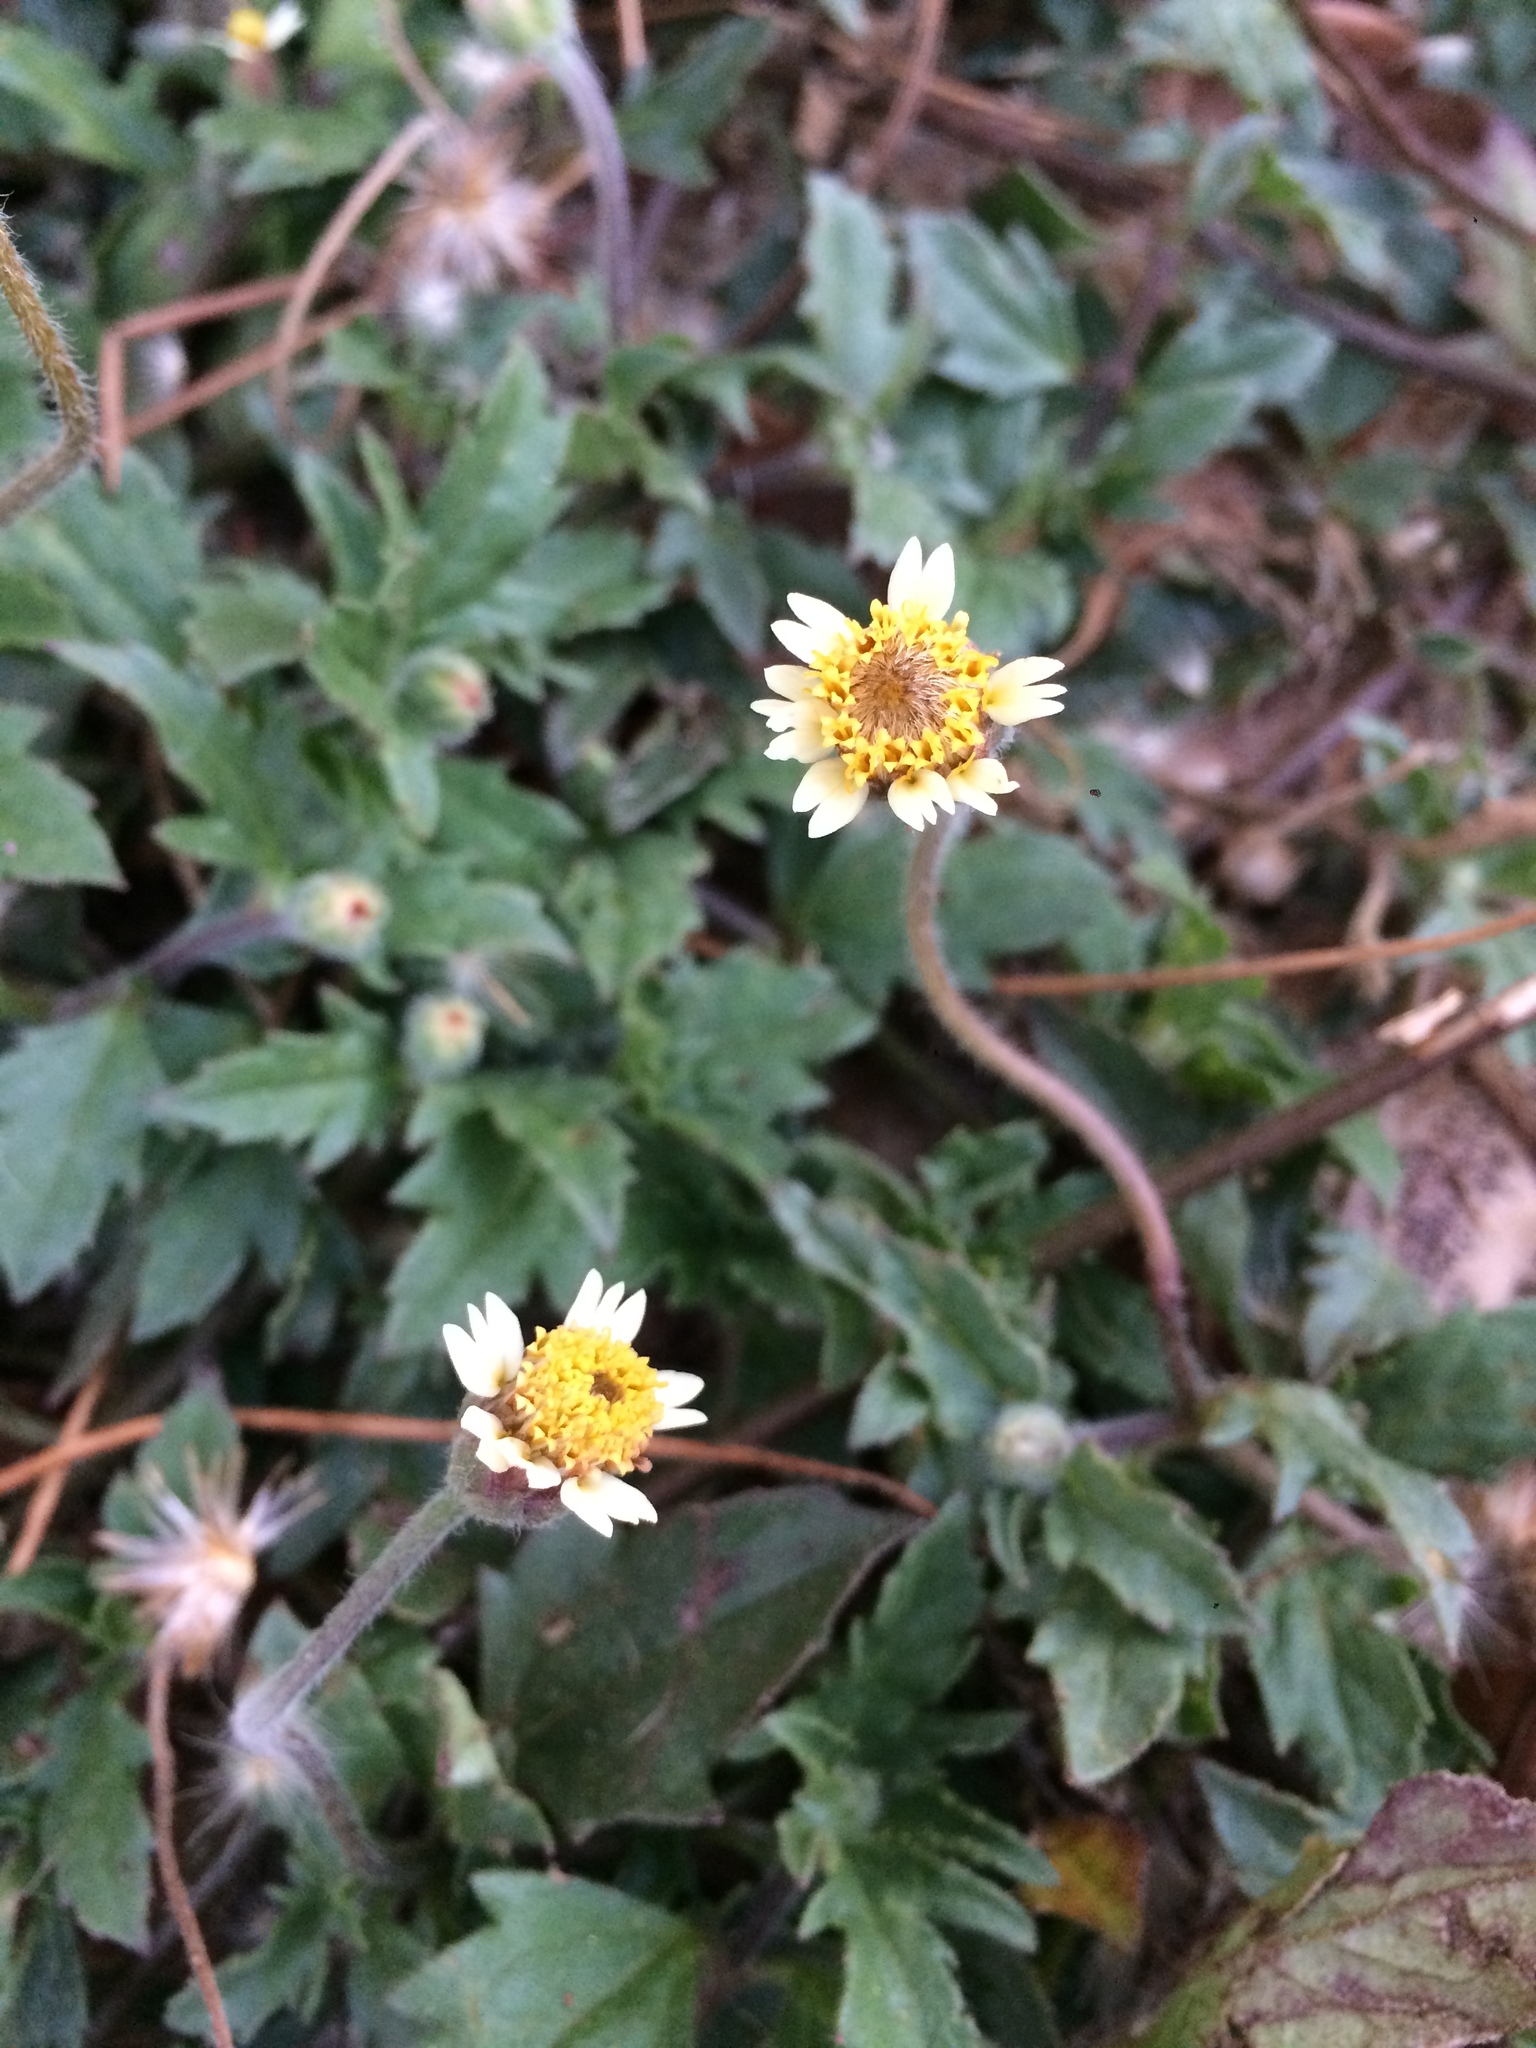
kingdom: Plantae
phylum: Tracheophyta
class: Magnoliopsida
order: Asterales
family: Asteraceae
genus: Tridax
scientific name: Tridax procumbens
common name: Coatbuttons
